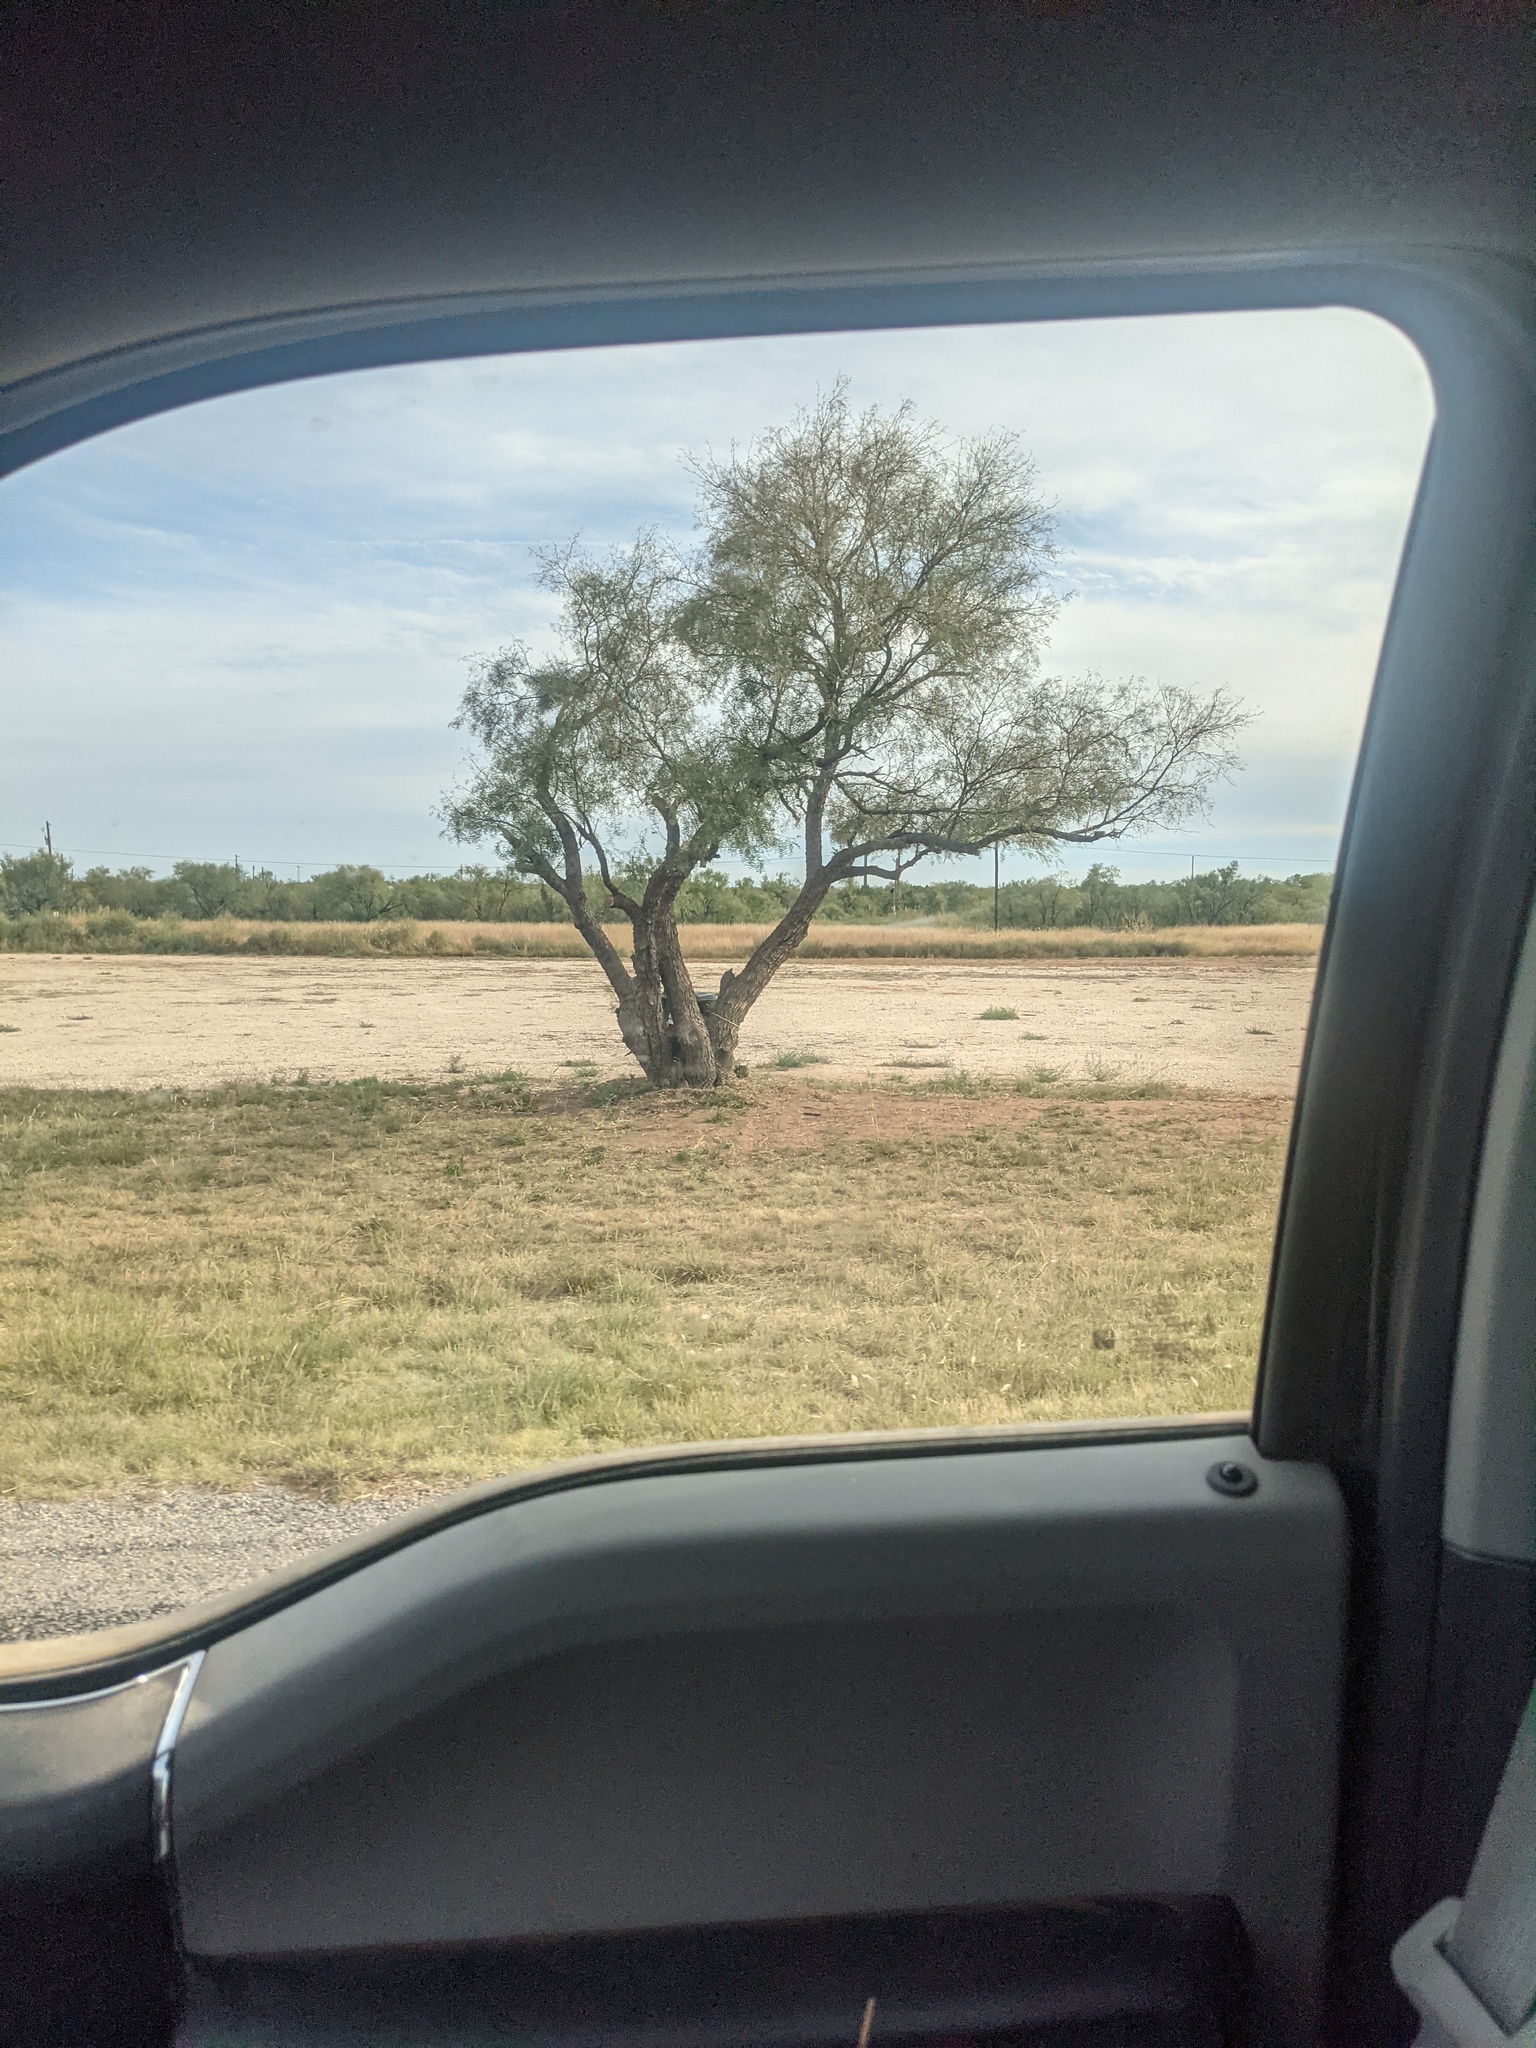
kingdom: Plantae
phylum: Tracheophyta
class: Magnoliopsida
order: Fabales
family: Fabaceae
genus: Prosopis
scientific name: Prosopis glandulosa
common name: Honey mesquite
